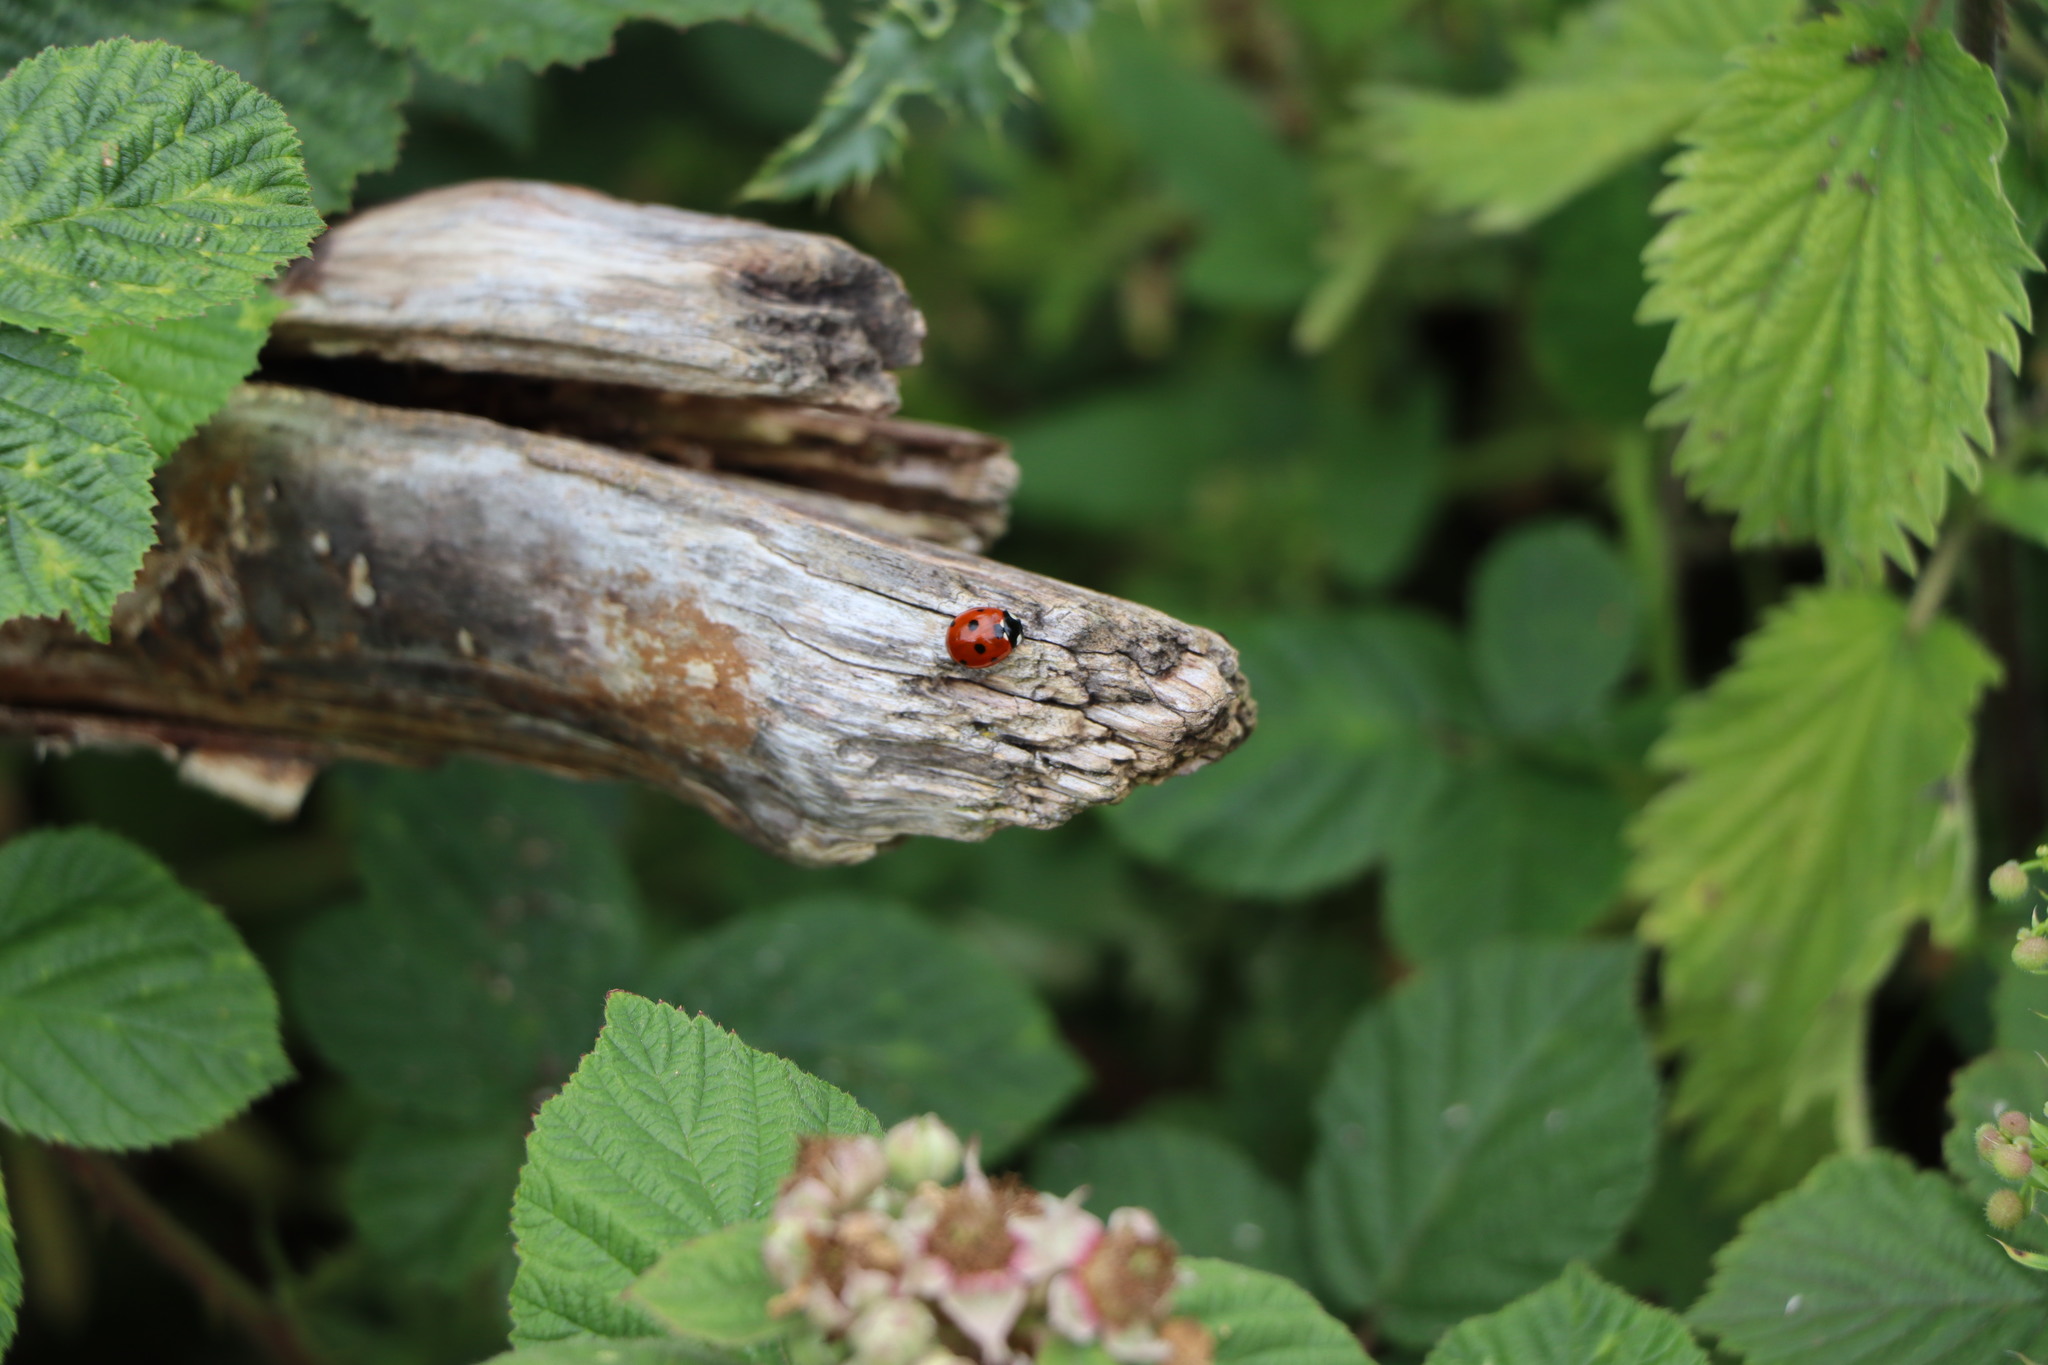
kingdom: Animalia
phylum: Arthropoda
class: Insecta
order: Coleoptera
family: Coccinellidae
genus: Coccinella
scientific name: Coccinella septempunctata
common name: Sevenspotted lady beetle
